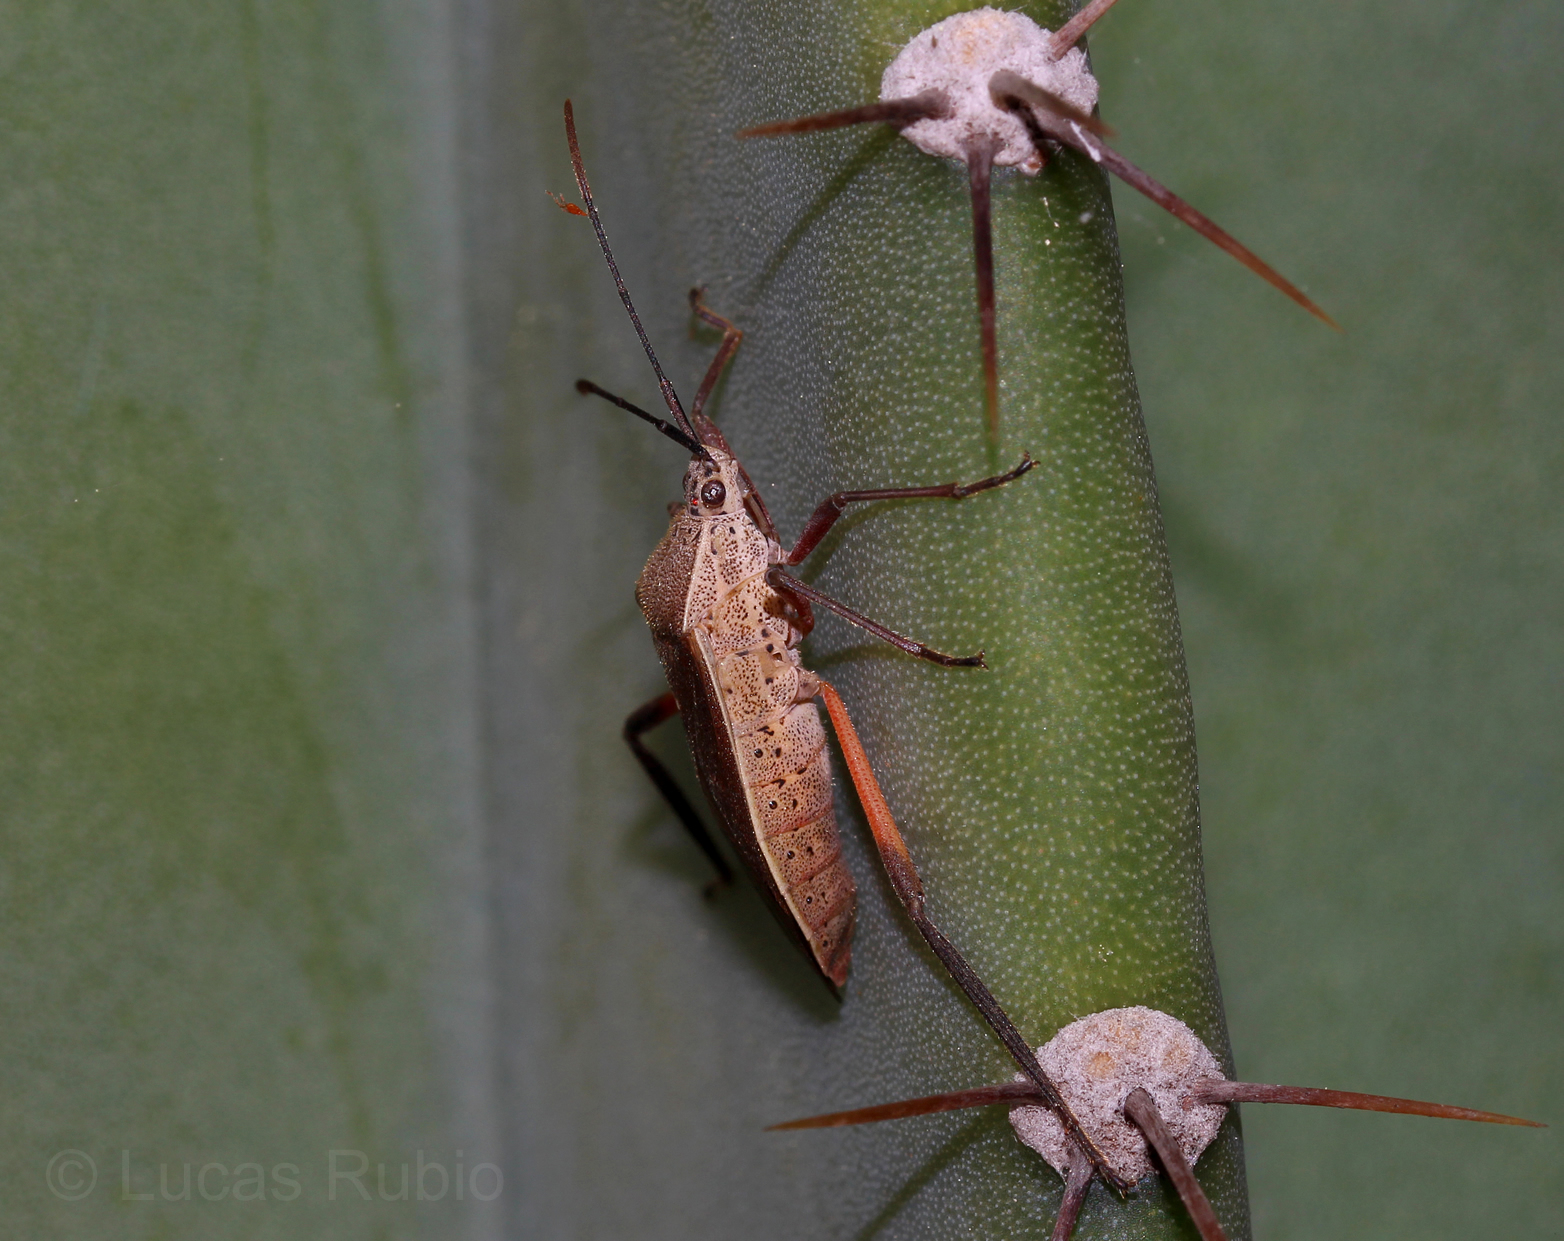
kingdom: Animalia
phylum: Arthropoda
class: Insecta
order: Hemiptera
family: Coreidae
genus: Plaxiscelis
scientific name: Plaxiscelis limbata
